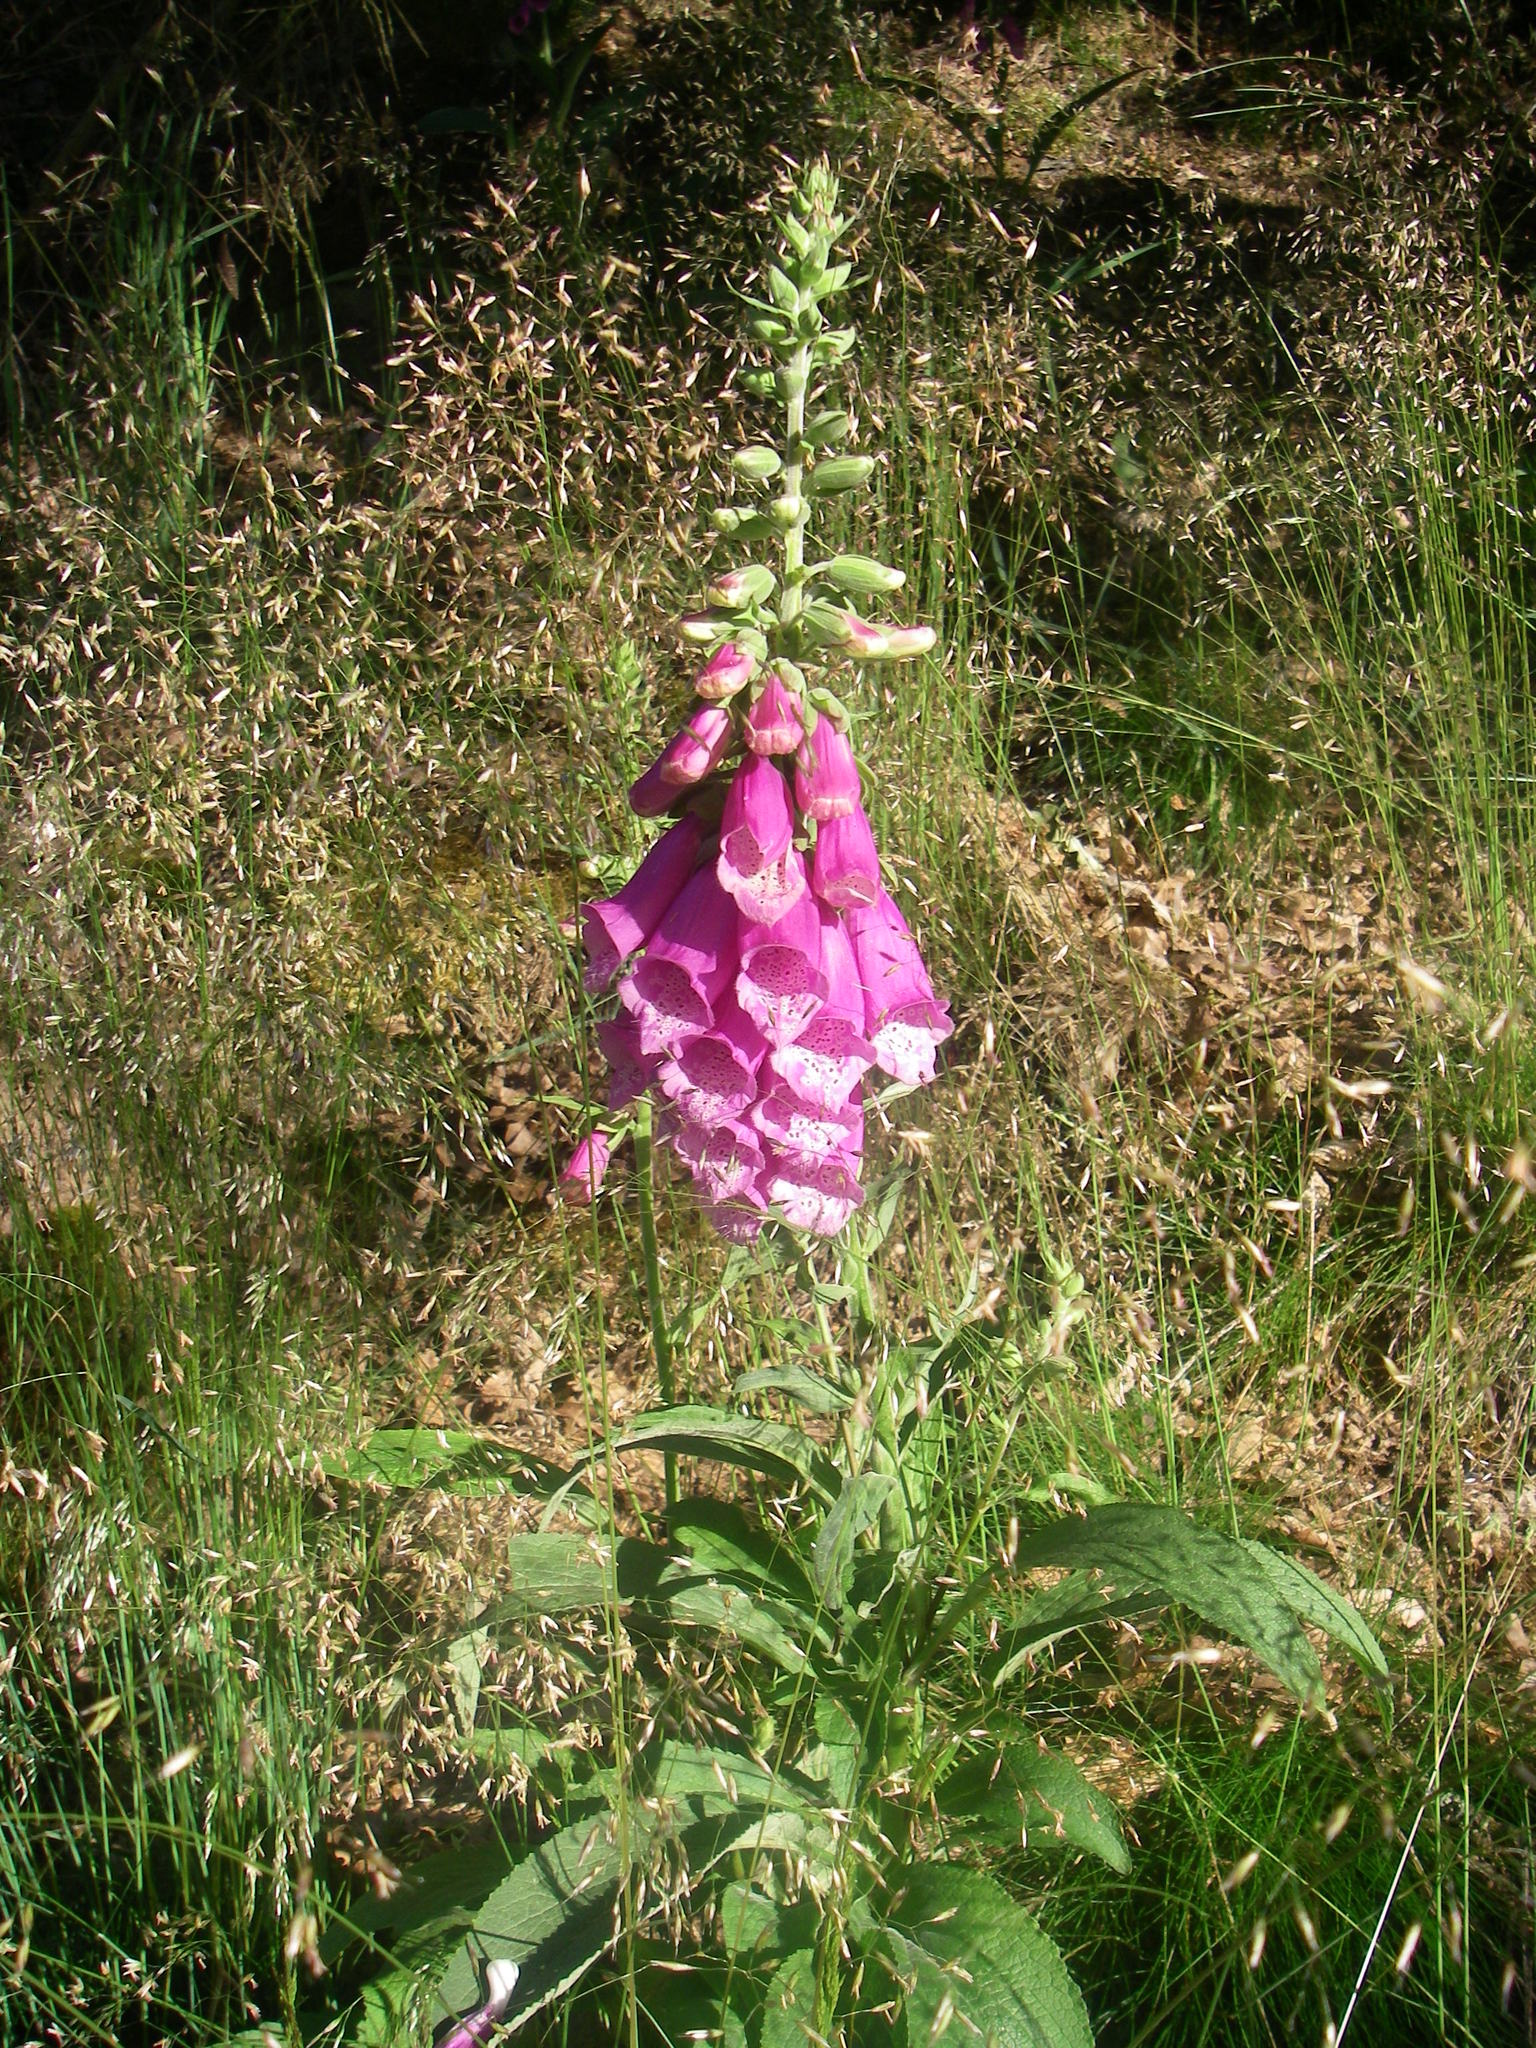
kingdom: Plantae
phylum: Tracheophyta
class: Magnoliopsida
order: Lamiales
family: Plantaginaceae
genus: Digitalis
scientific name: Digitalis purpurea
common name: Foxglove
